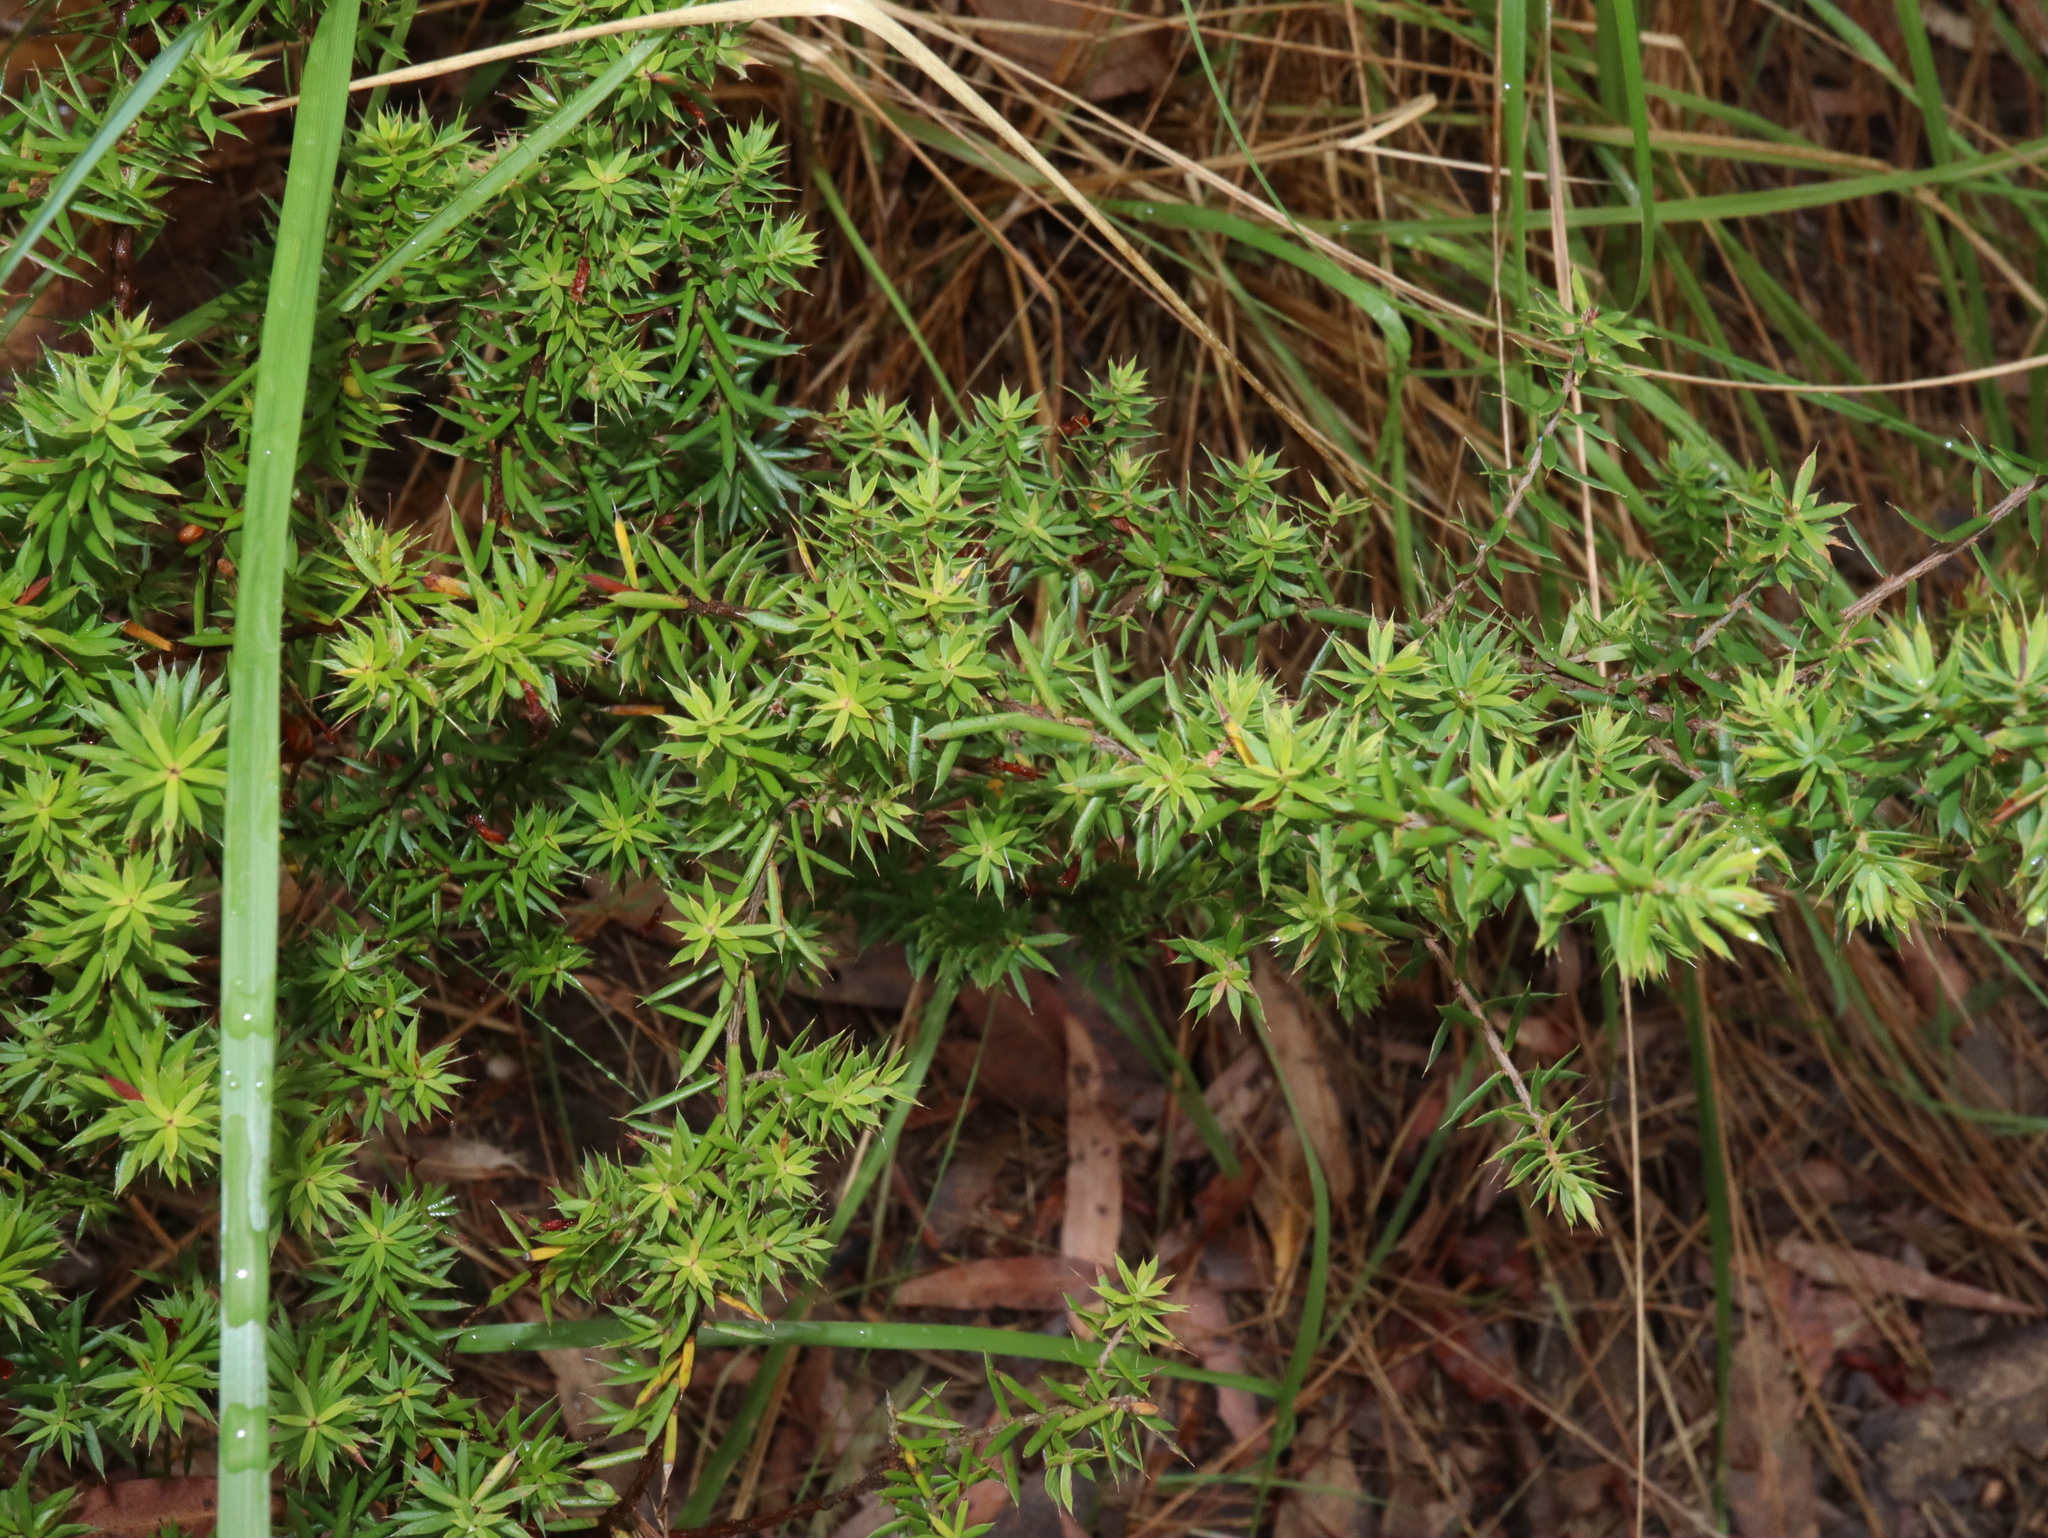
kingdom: Plantae
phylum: Tracheophyta
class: Magnoliopsida
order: Ericales
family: Ericaceae
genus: Styphelia
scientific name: Styphelia sieberi
